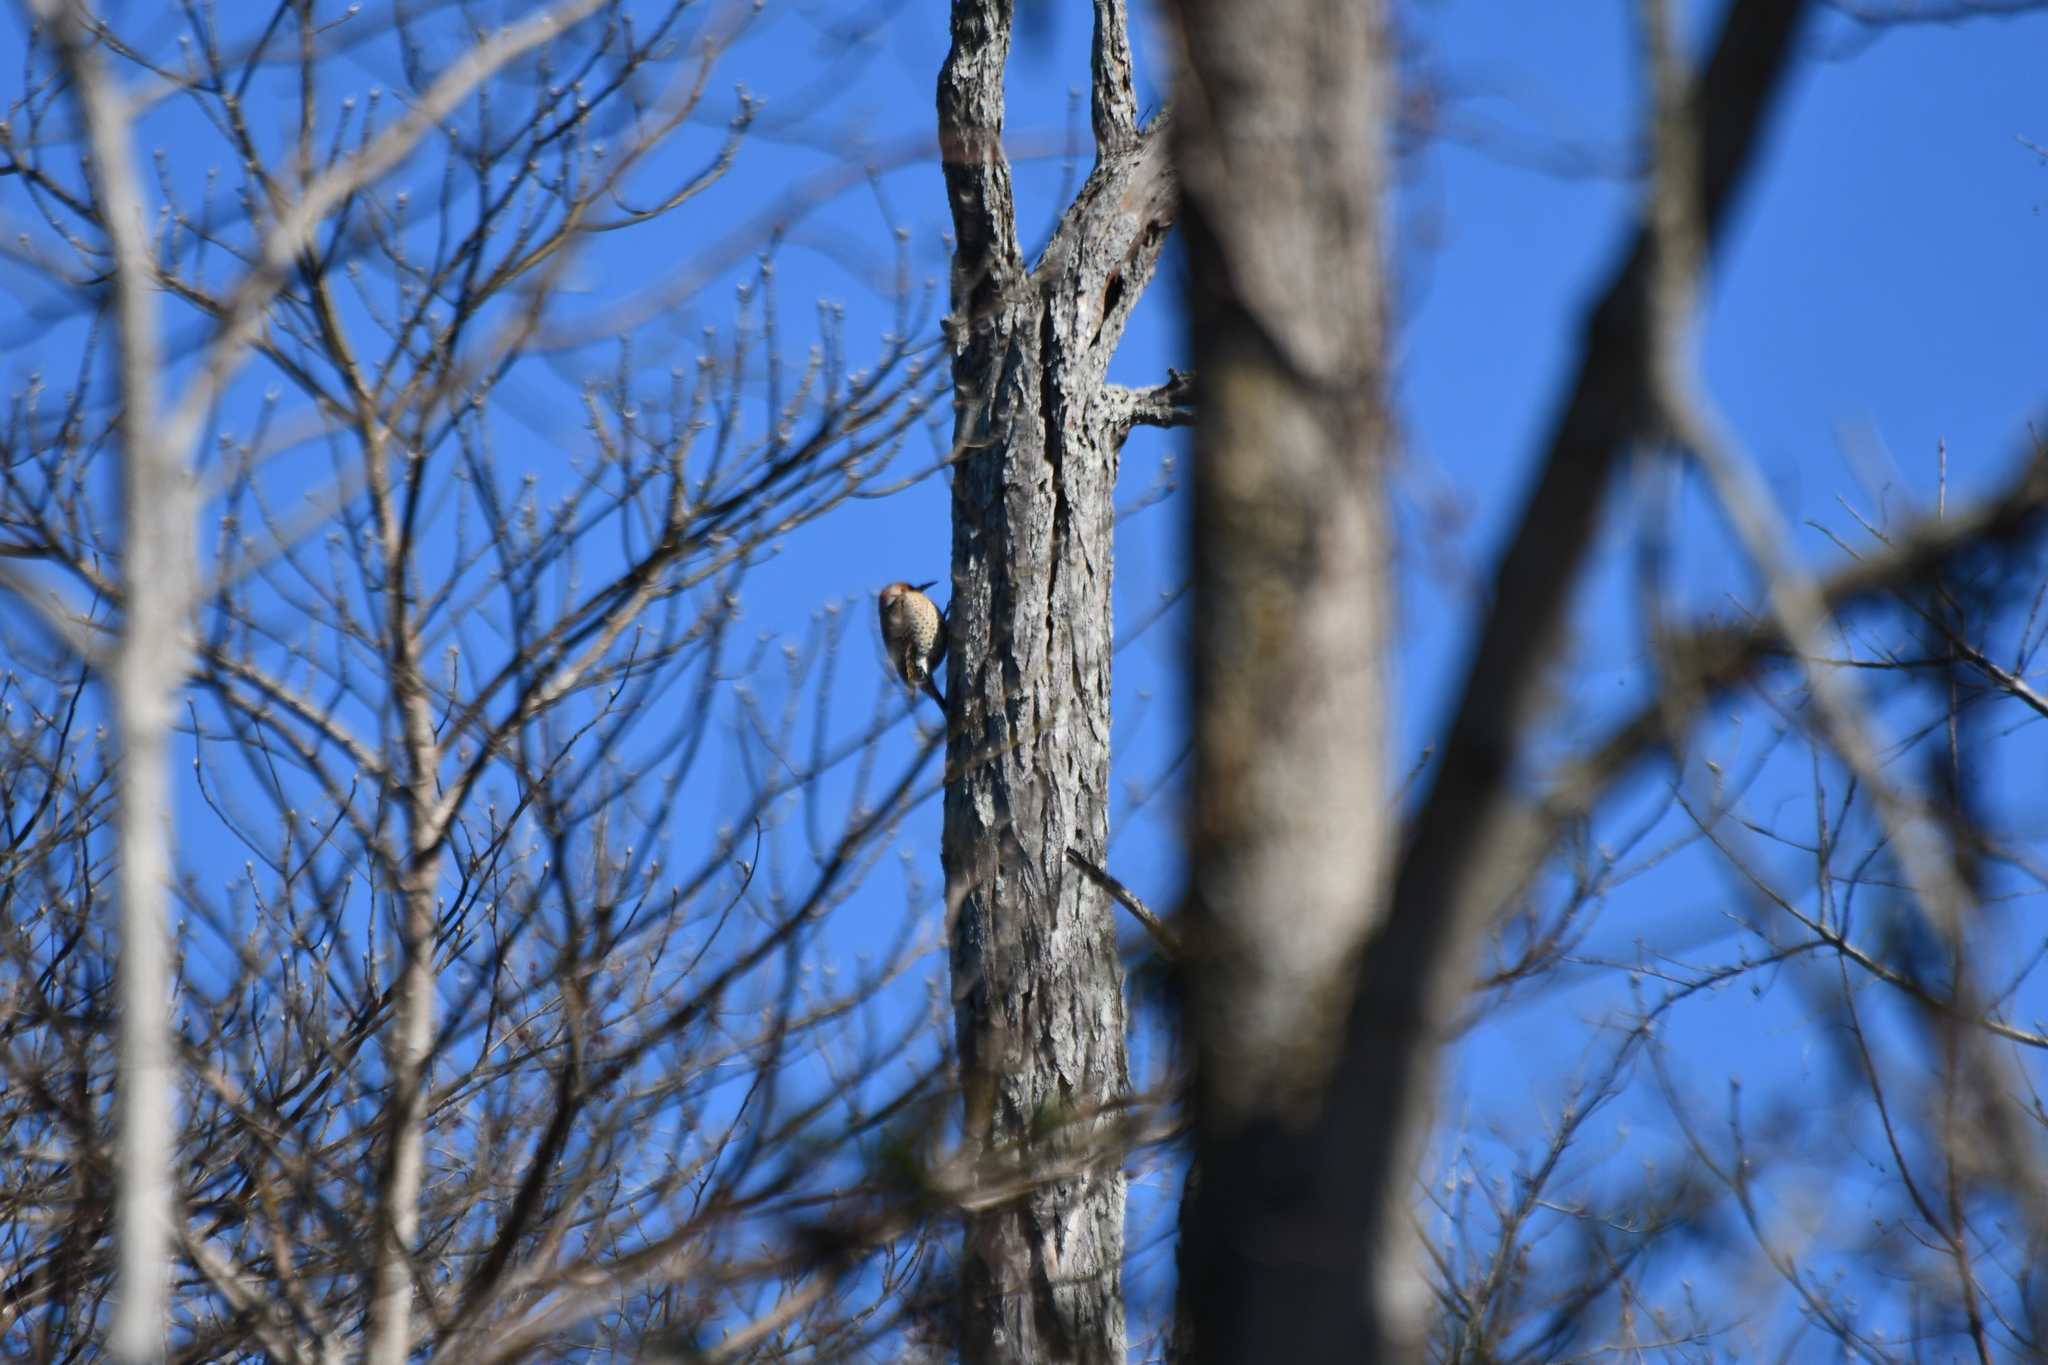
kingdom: Animalia
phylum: Chordata
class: Aves
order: Piciformes
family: Picidae
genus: Colaptes
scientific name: Colaptes auratus
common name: Northern flicker
